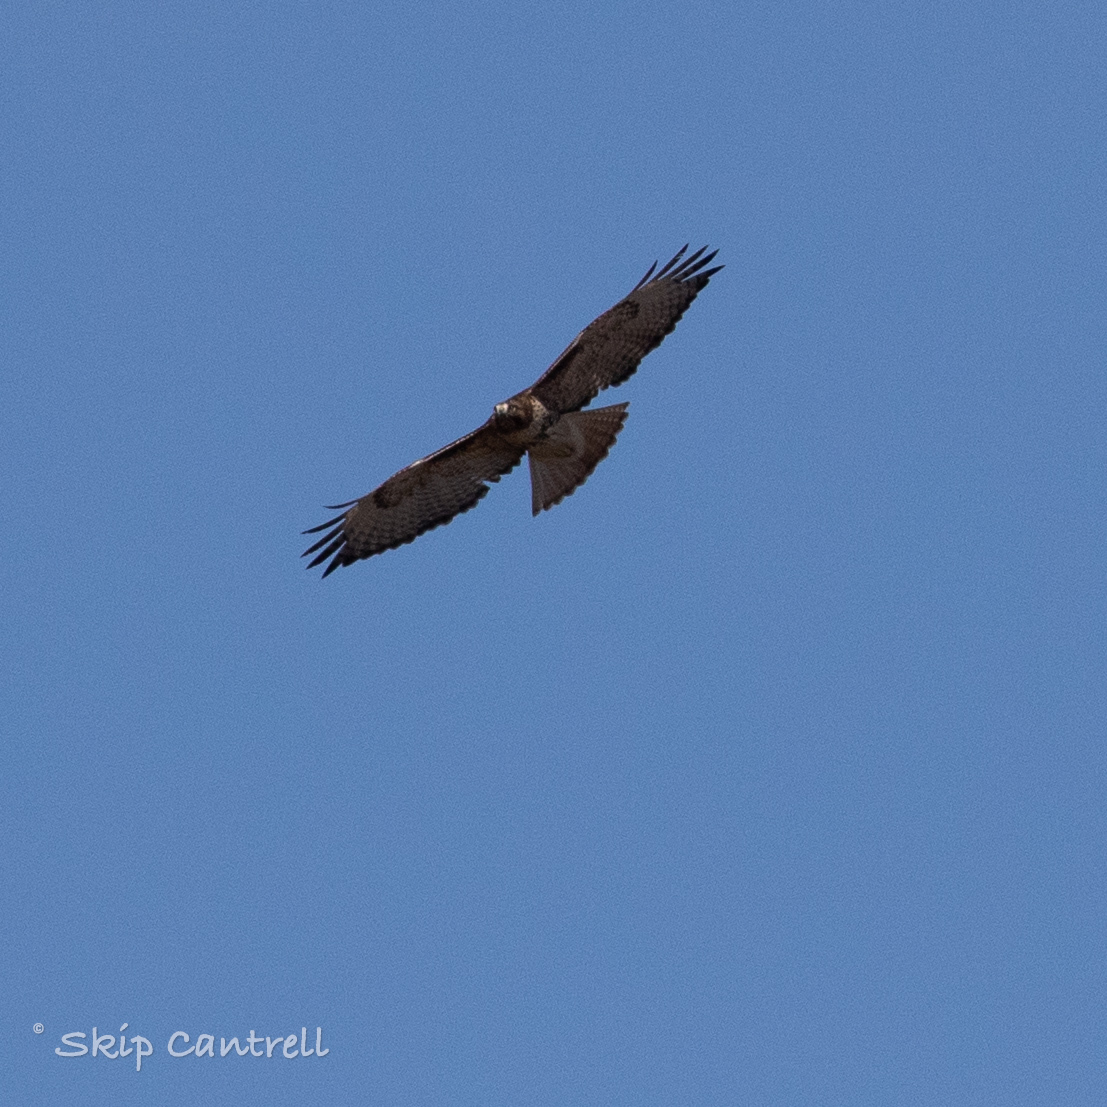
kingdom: Animalia
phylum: Chordata
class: Aves
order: Accipitriformes
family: Accipitridae
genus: Buteo
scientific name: Buteo jamaicensis
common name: Red-tailed hawk
